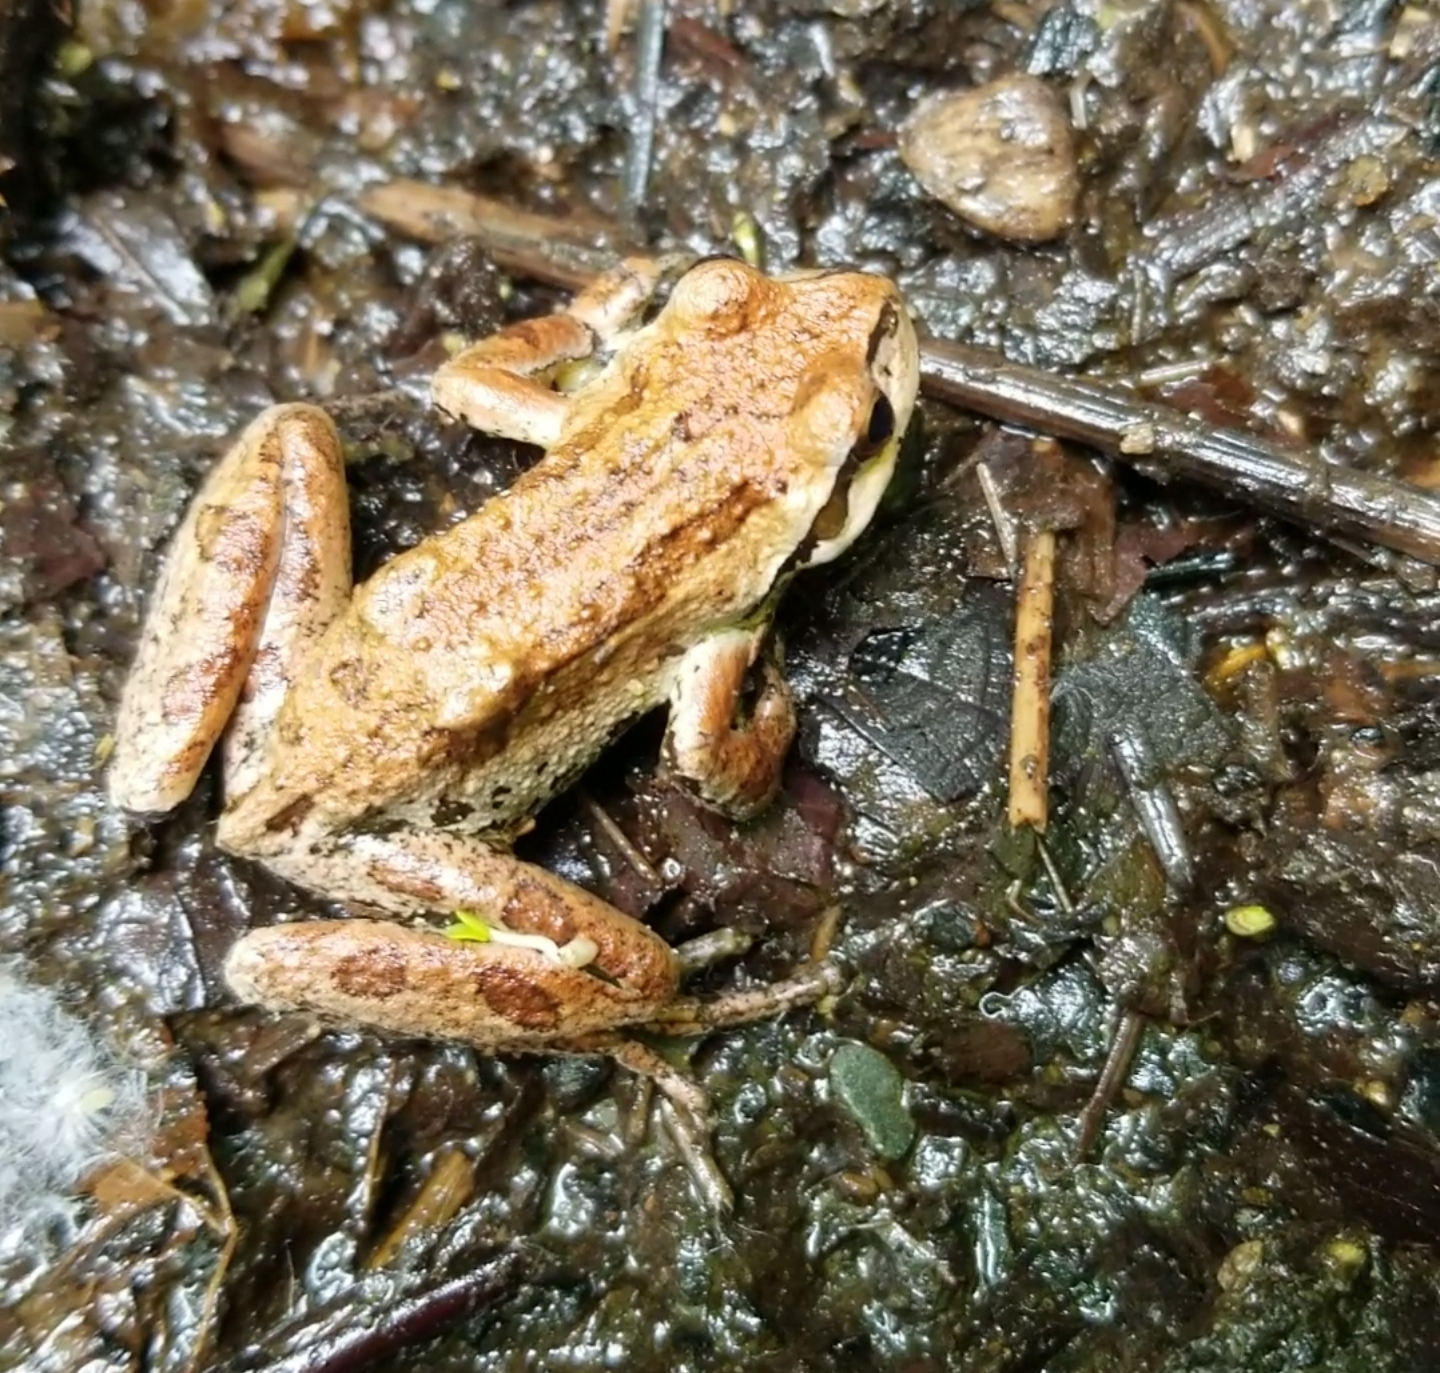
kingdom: Animalia
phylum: Chordata
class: Amphibia
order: Anura
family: Hylidae
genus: Pseudacris
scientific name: Pseudacris regilla
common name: Pacific chorus frog
